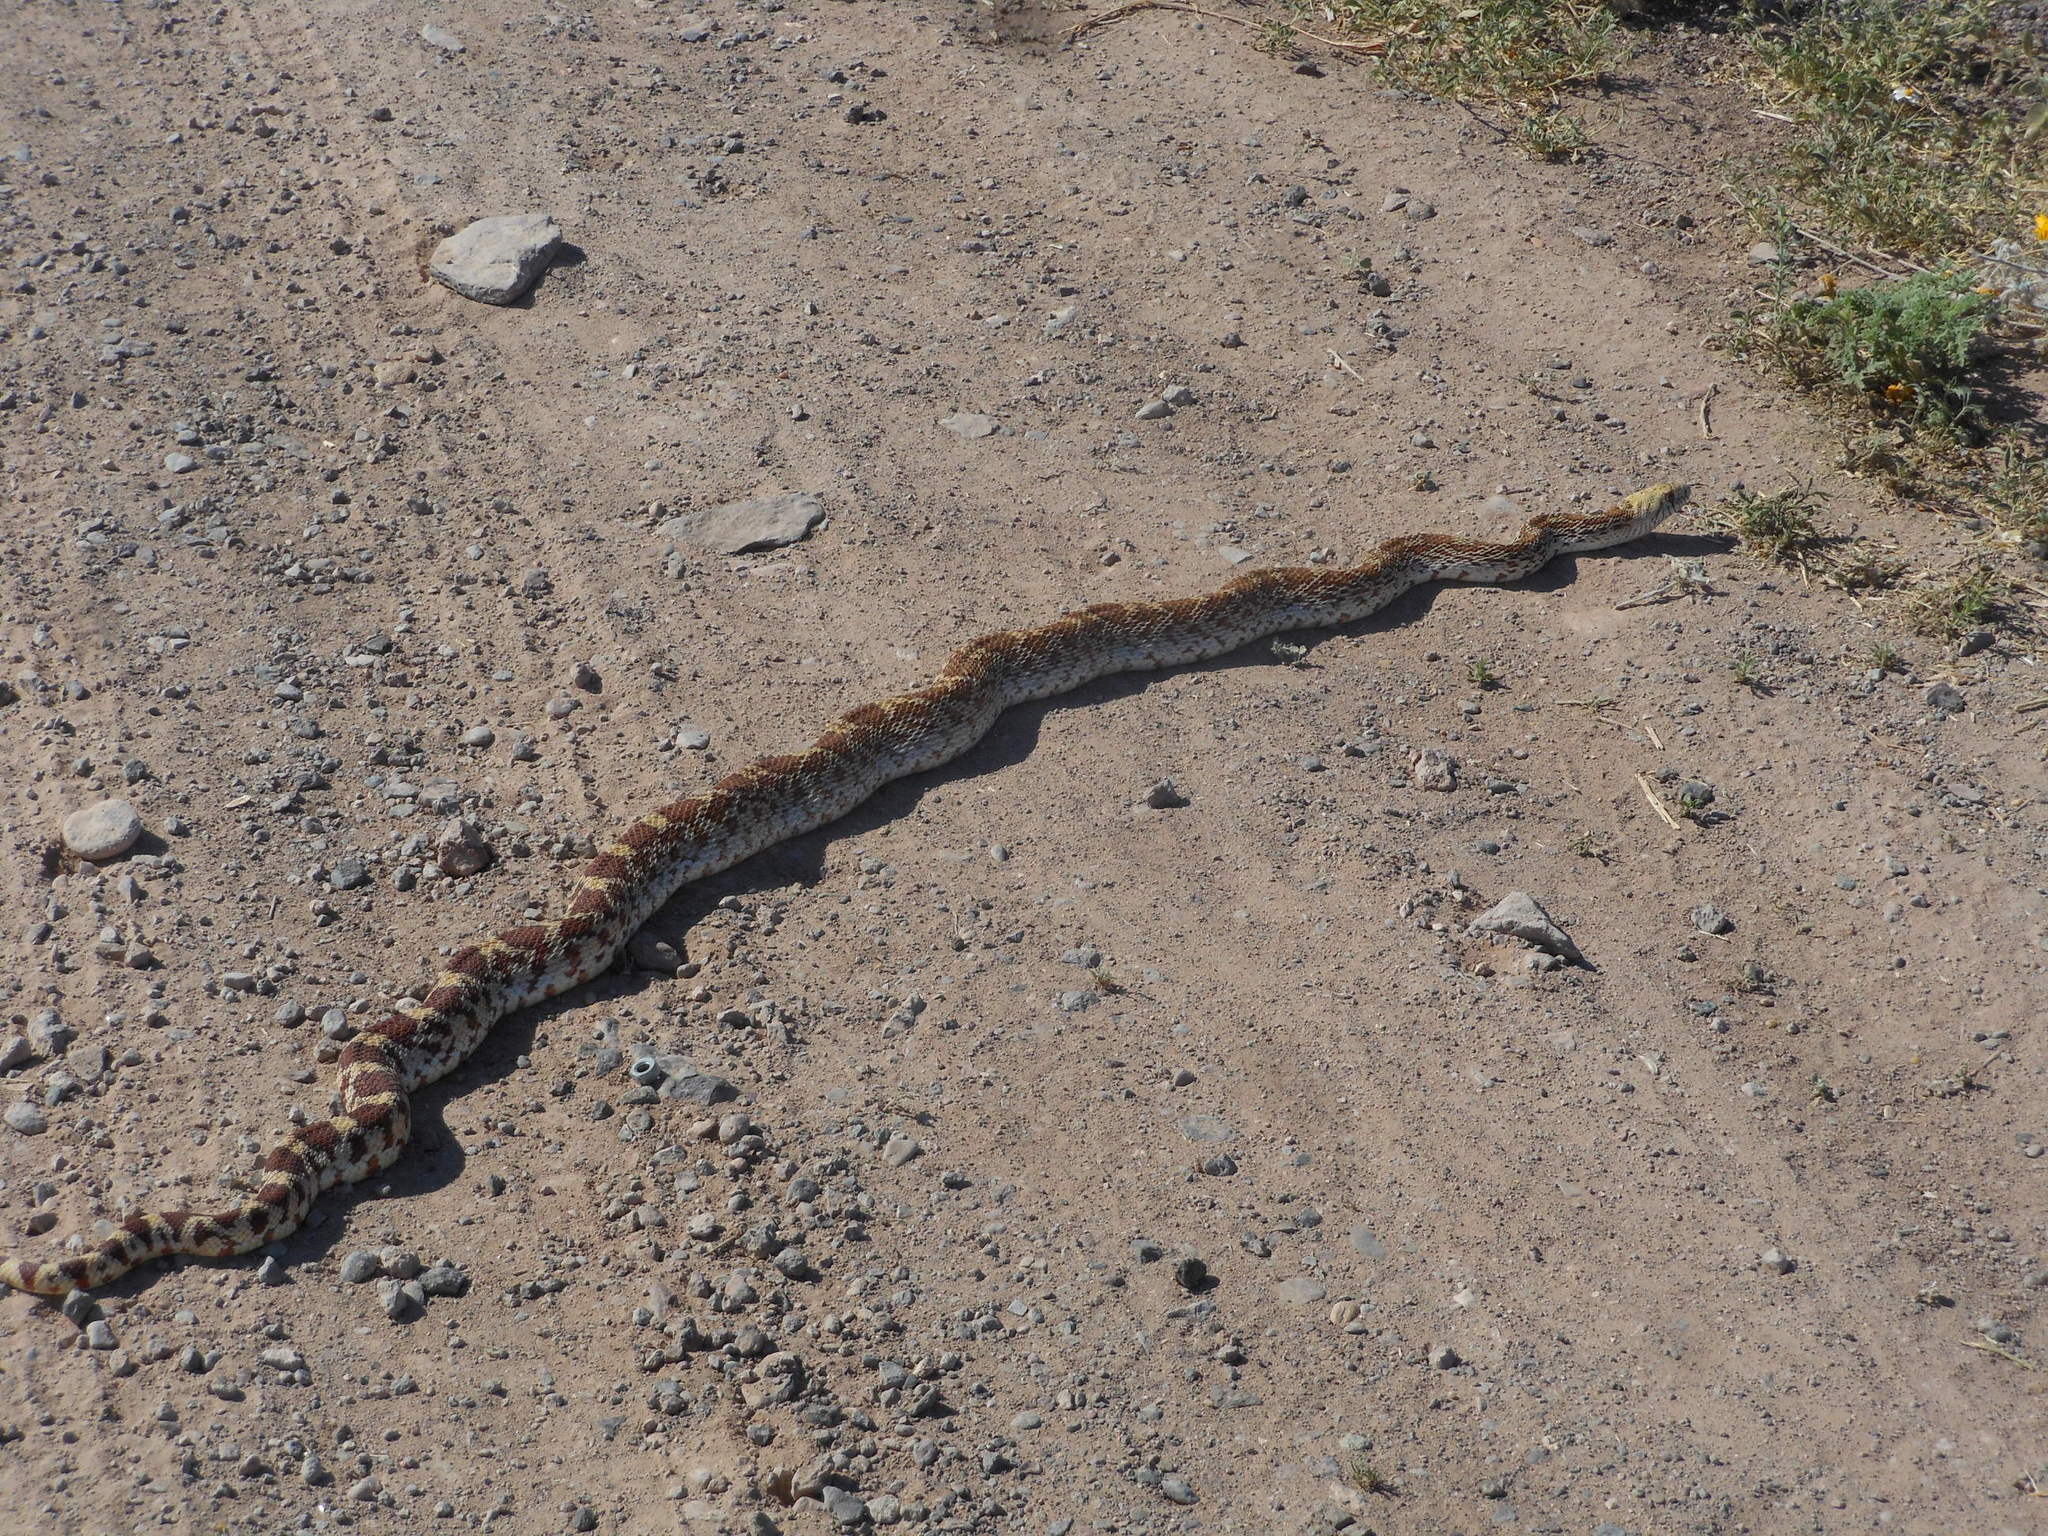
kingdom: Animalia
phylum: Chordata
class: Squamata
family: Colubridae
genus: Pituophis
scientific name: Pituophis catenifer
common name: Gopher snake
